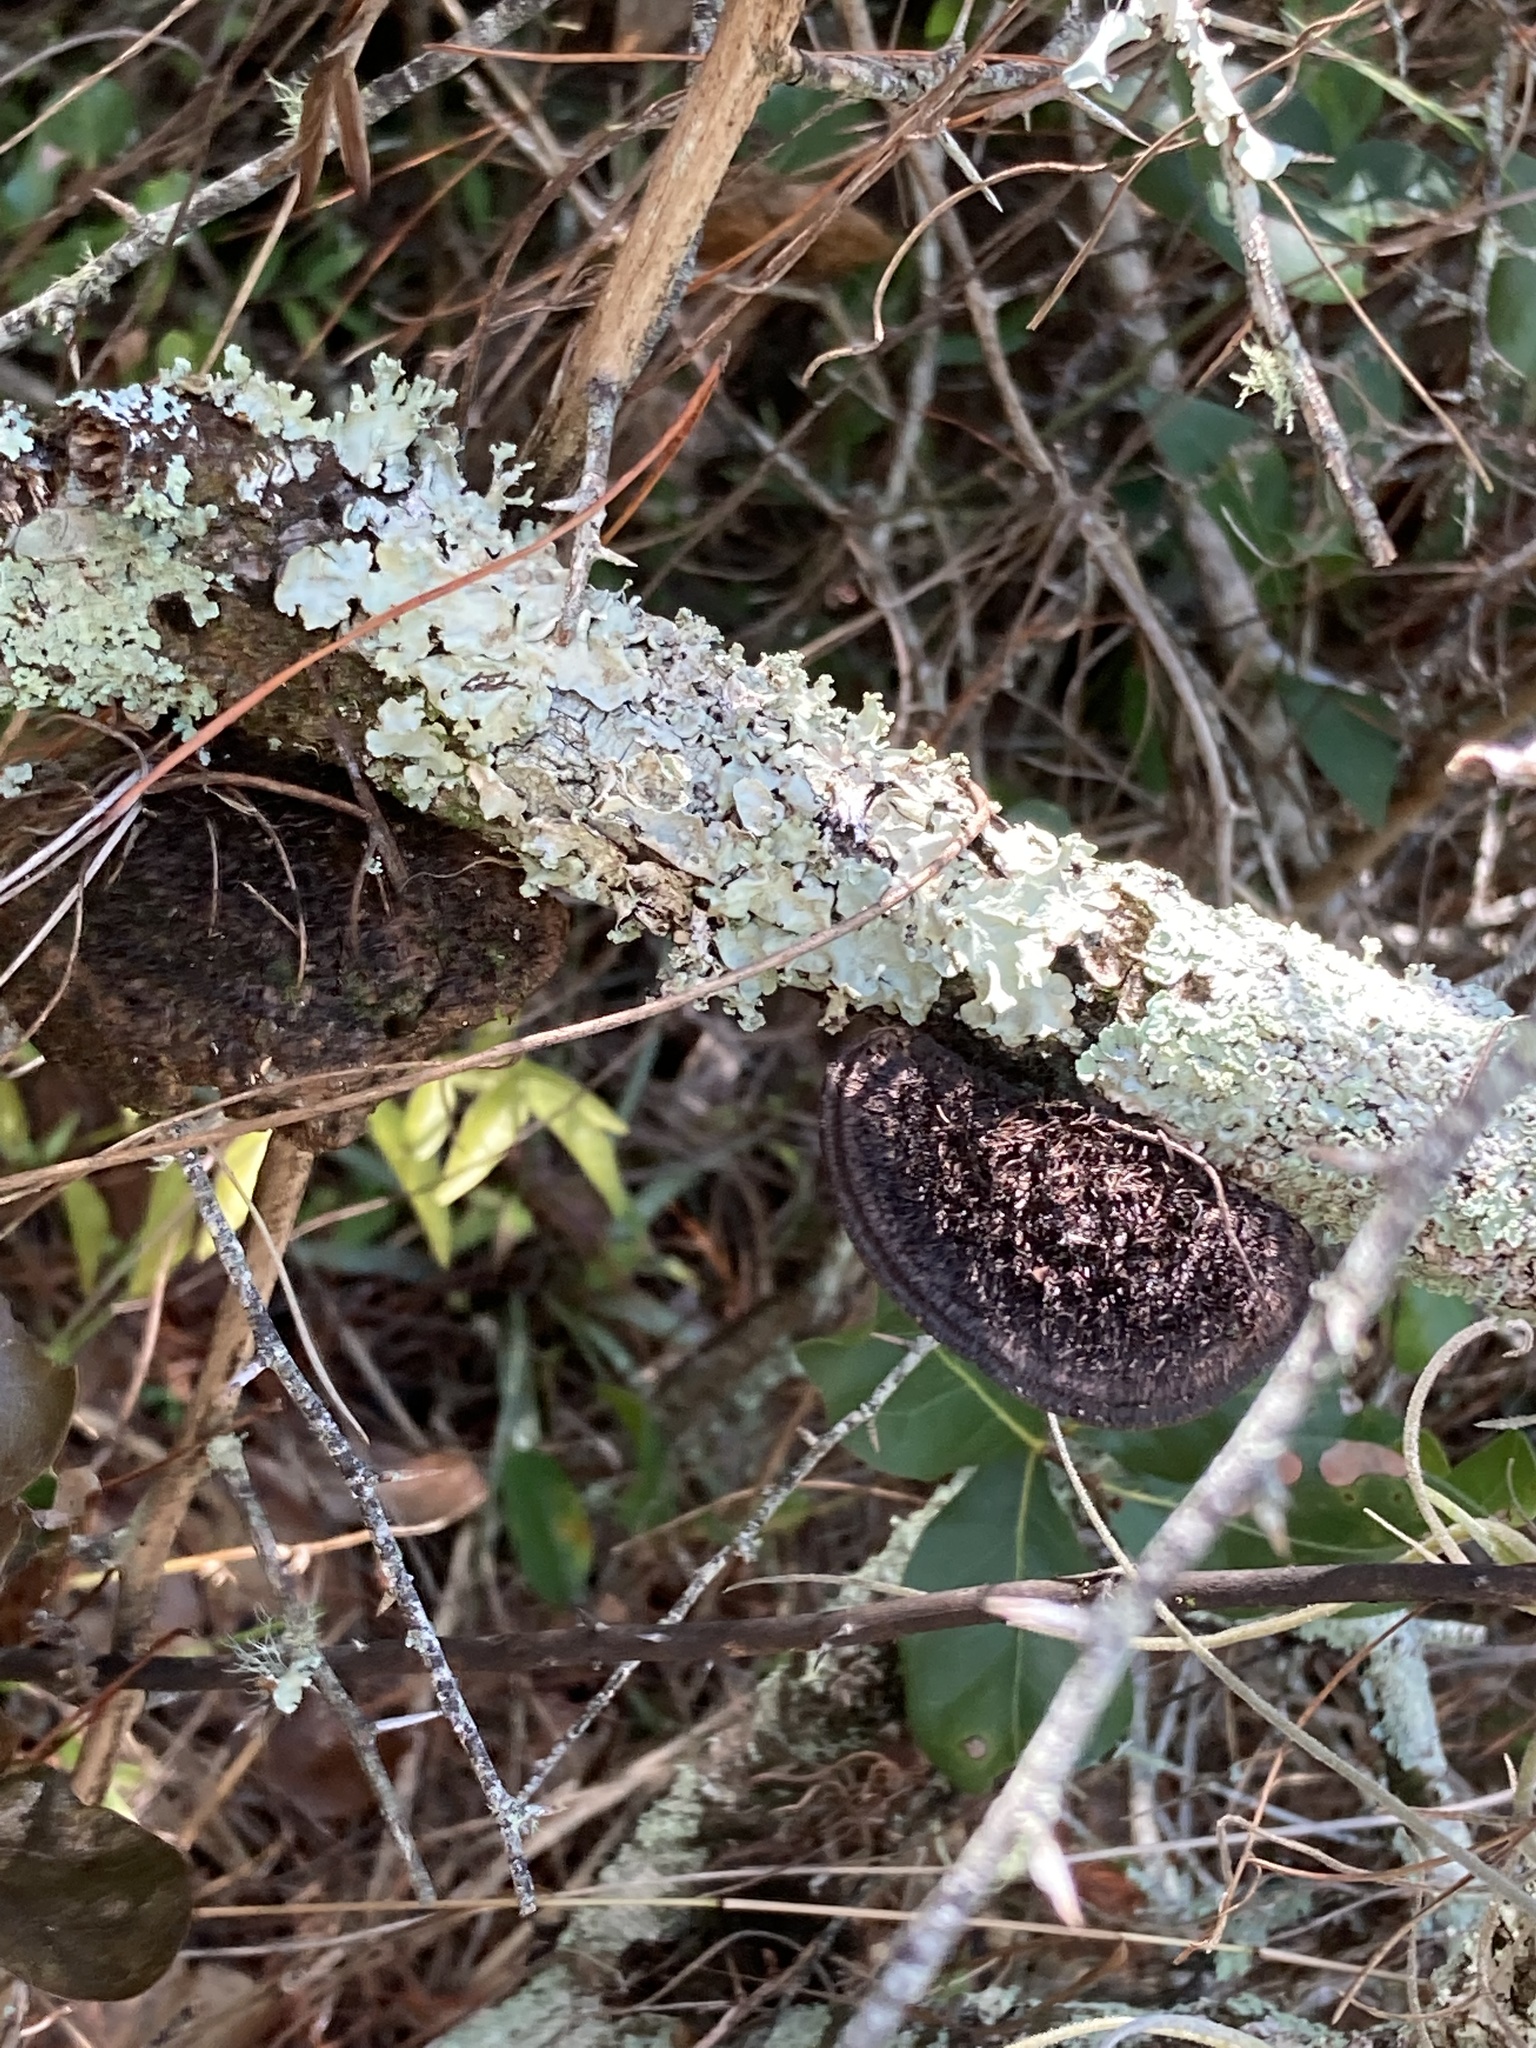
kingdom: Fungi
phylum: Basidiomycota
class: Agaricomycetes
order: Polyporales
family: Cerrenaceae
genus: Cerrena
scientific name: Cerrena hydnoides
